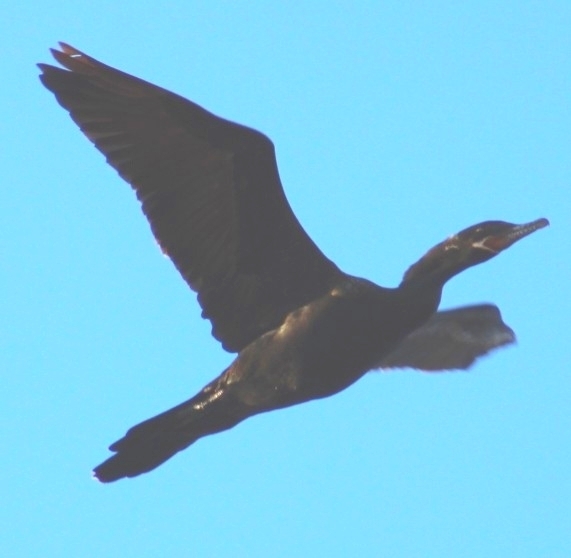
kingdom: Animalia
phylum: Chordata
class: Aves
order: Suliformes
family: Phalacrocoracidae
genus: Phalacrocorax
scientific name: Phalacrocorax brasilianus
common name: Neotropic cormorant
